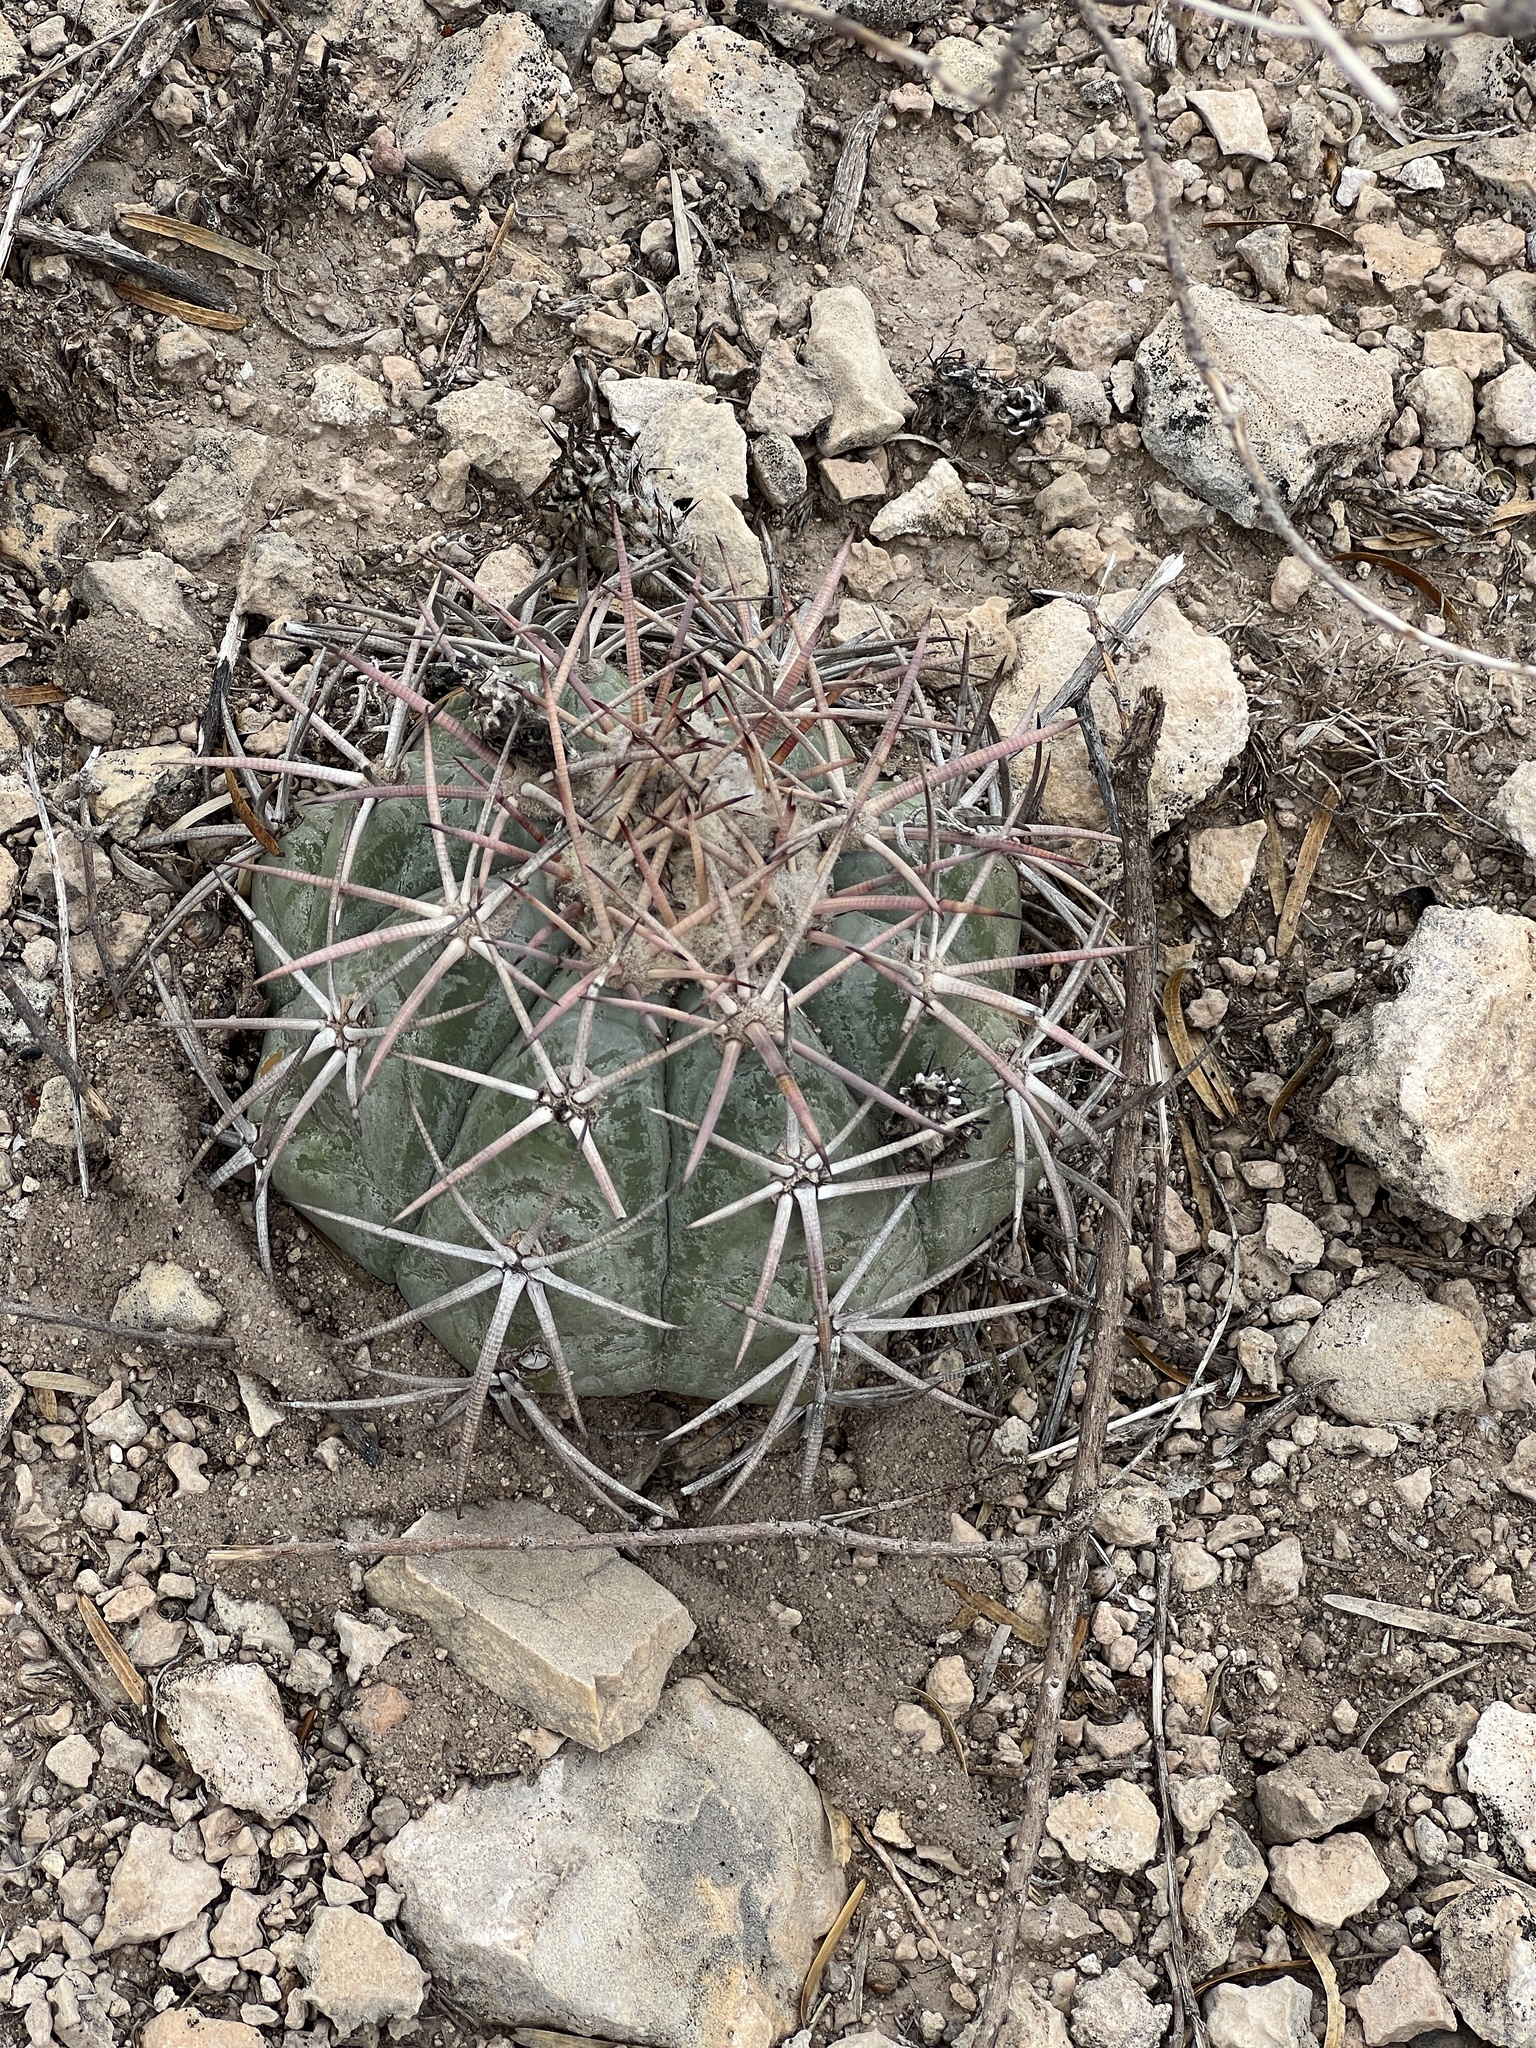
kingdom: Plantae
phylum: Tracheophyta
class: Magnoliopsida
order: Caryophyllales
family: Cactaceae
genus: Echinocactus
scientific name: Echinocactus horizonthalonius
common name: Devilshead
